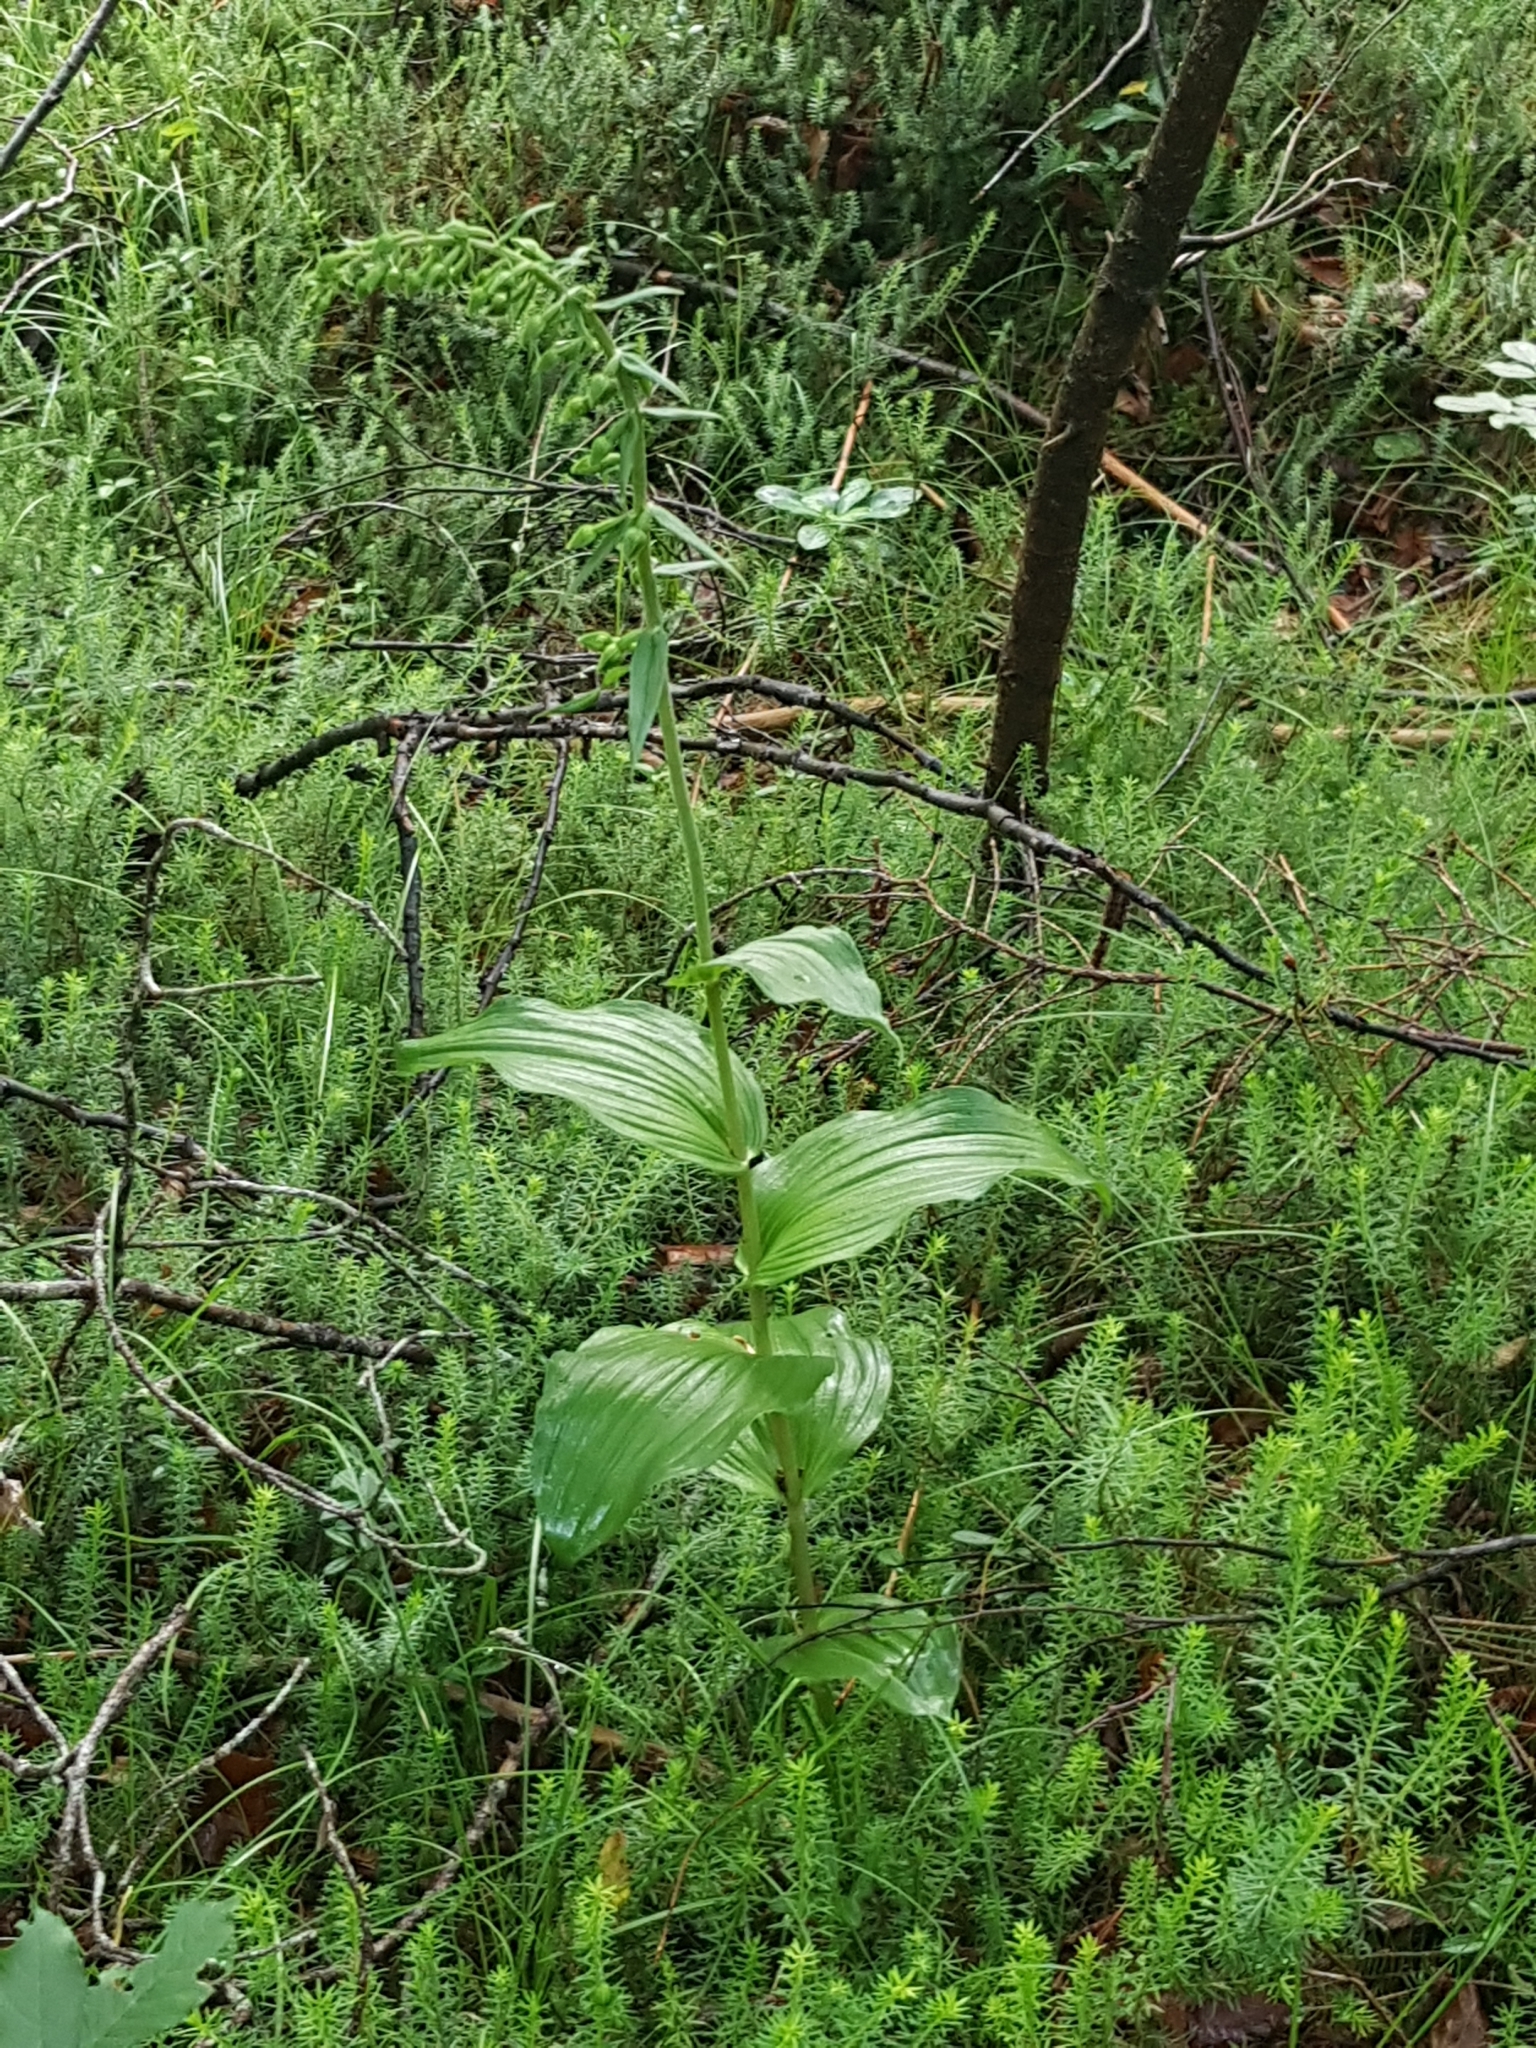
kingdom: Plantae
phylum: Tracheophyta
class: Liliopsida
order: Asparagales
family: Orchidaceae
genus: Epipactis
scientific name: Epipactis helleborine
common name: Broad-leaved helleborine
